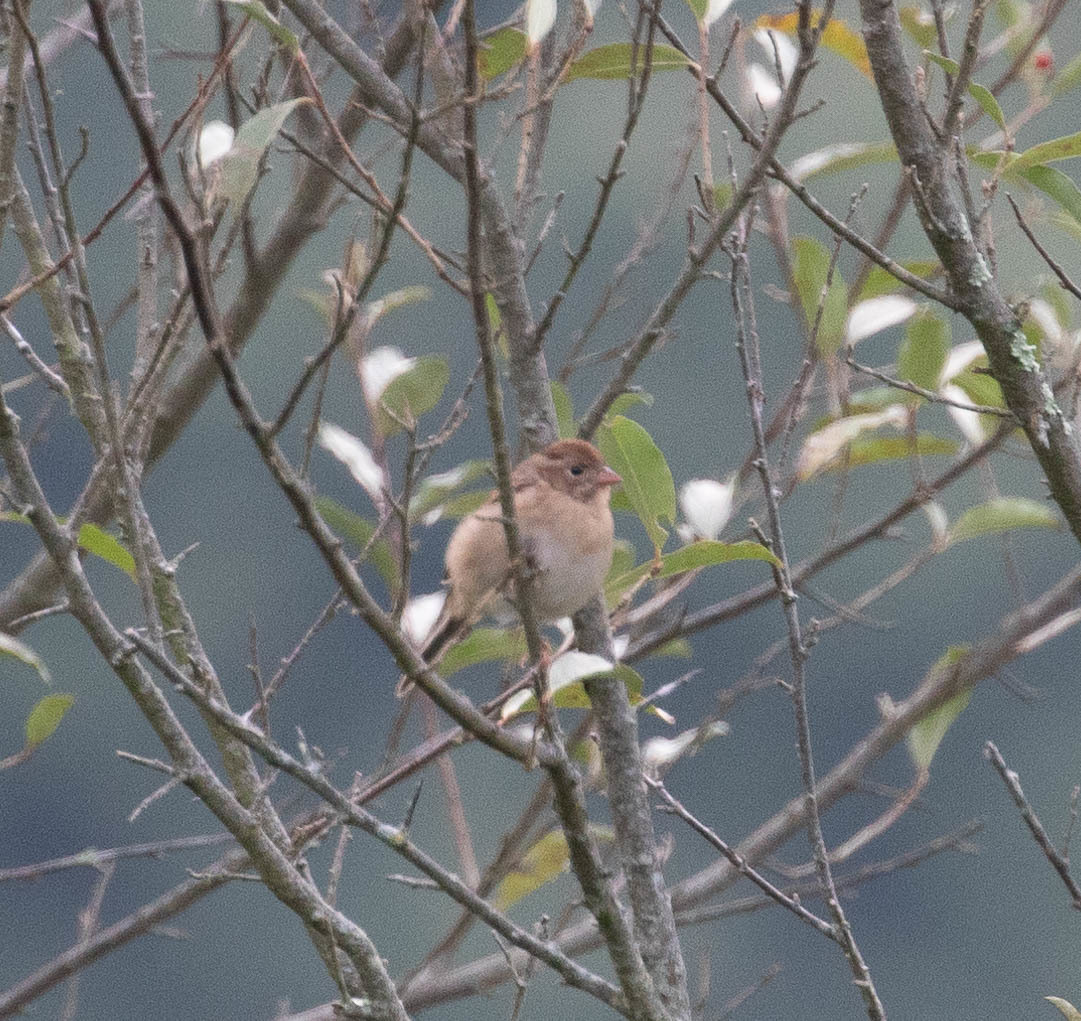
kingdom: Animalia
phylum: Chordata
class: Aves
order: Passeriformes
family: Passerellidae
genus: Spizella
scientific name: Spizella pusilla
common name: Field sparrow
